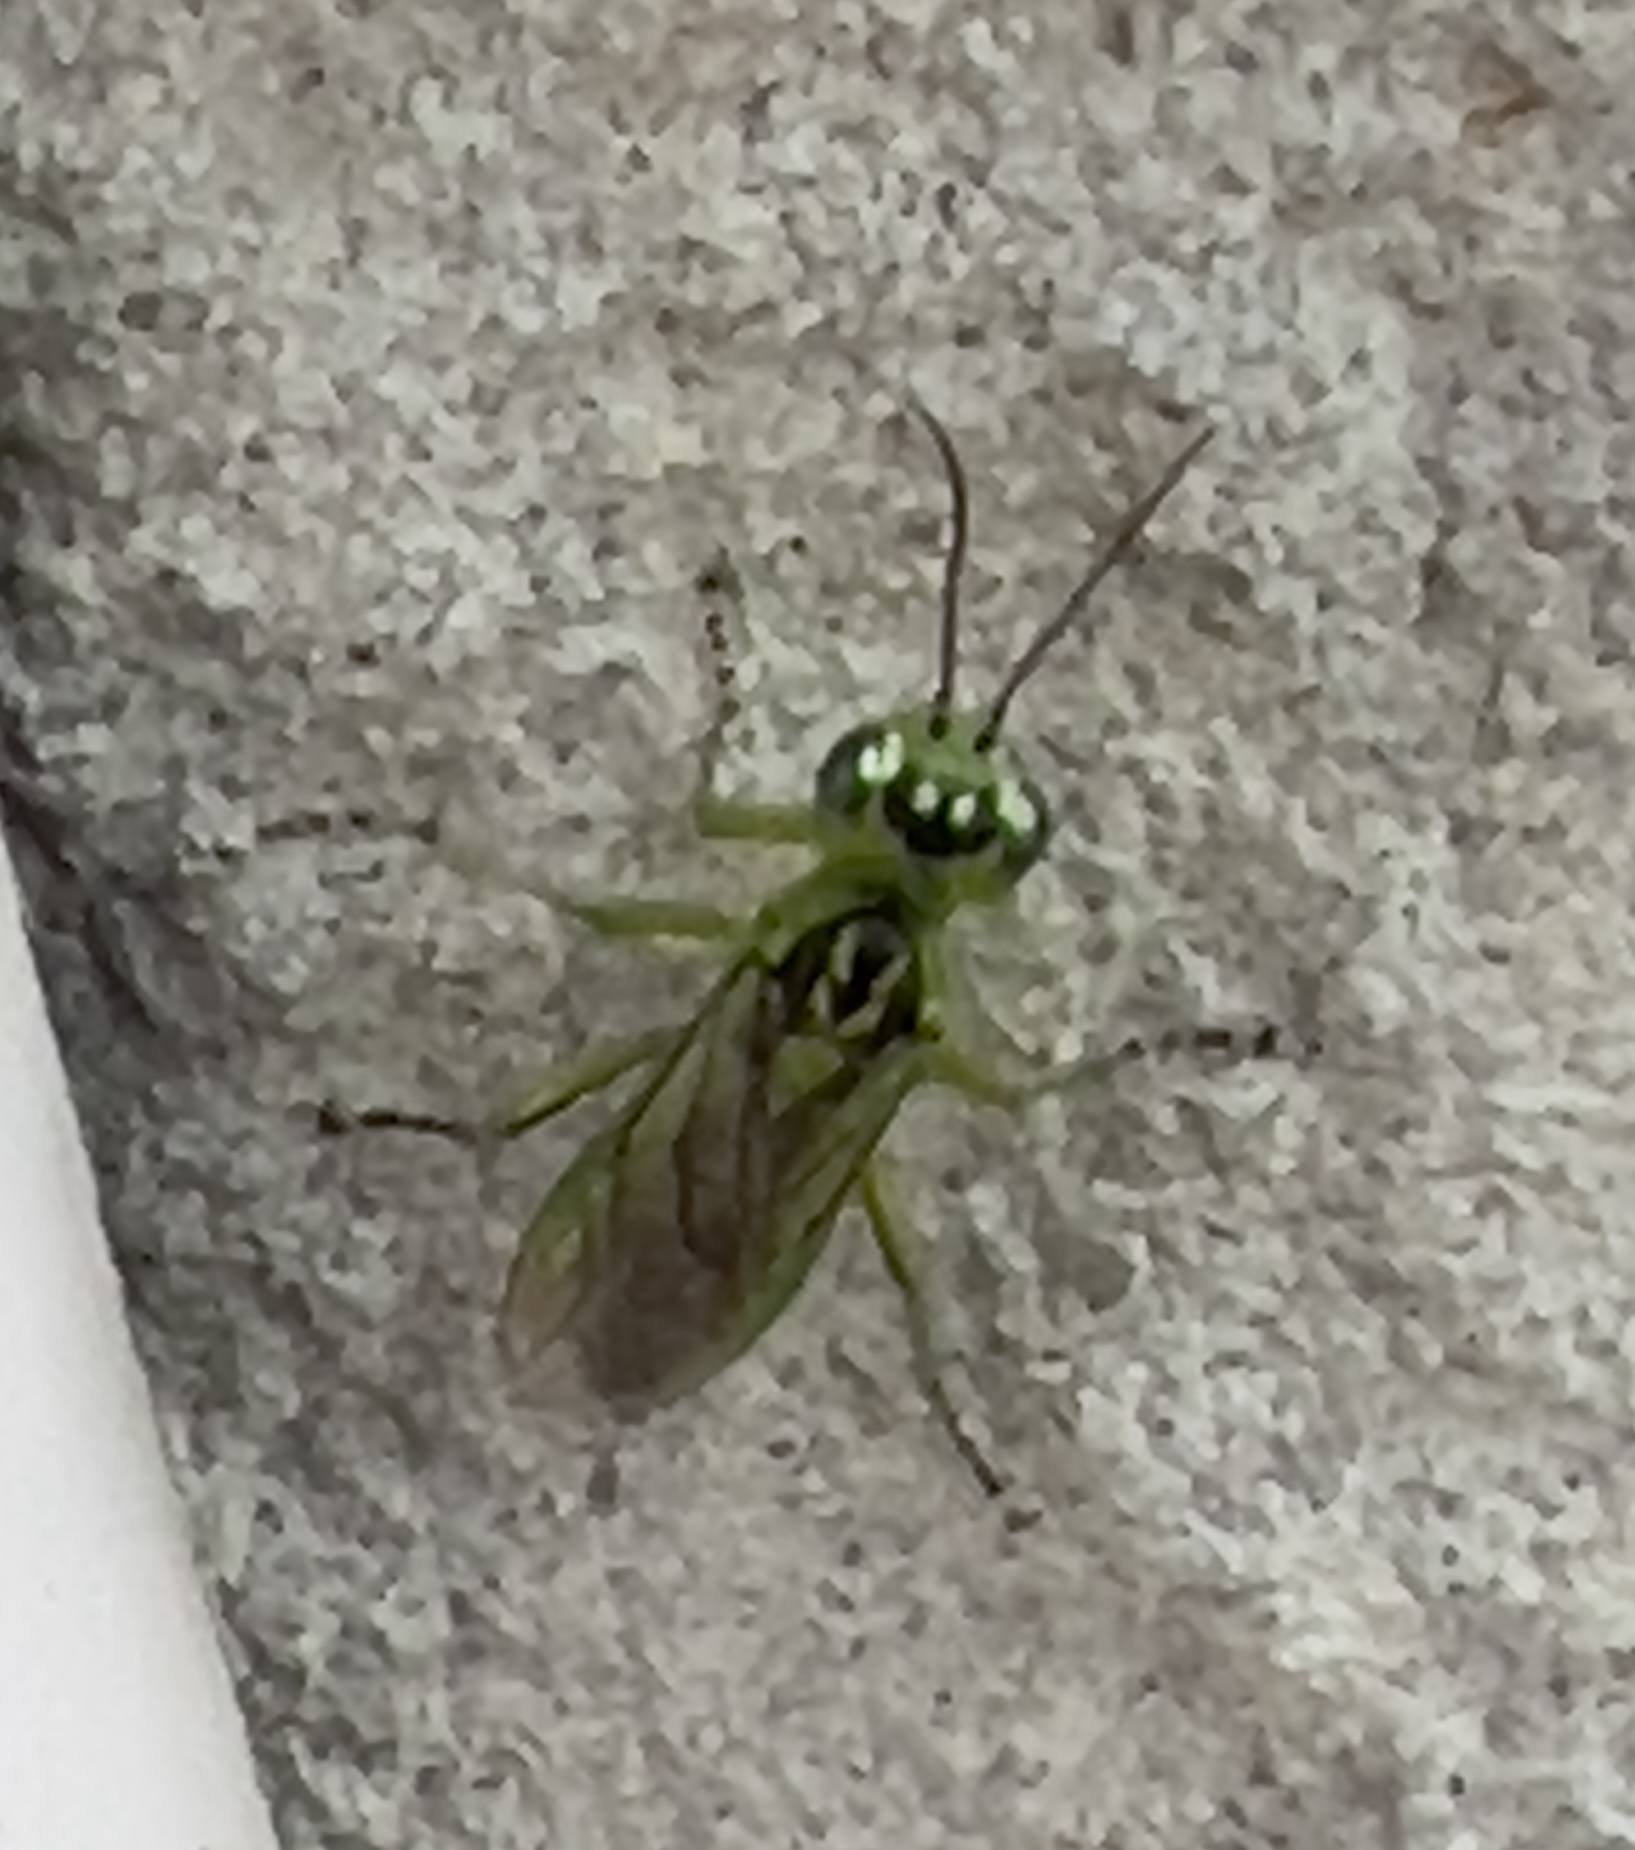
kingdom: Animalia
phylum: Arthropoda
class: Insecta
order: Hymenoptera
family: Tenthredinidae
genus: Rhogogaster
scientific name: Rhogogaster chlorosoma
